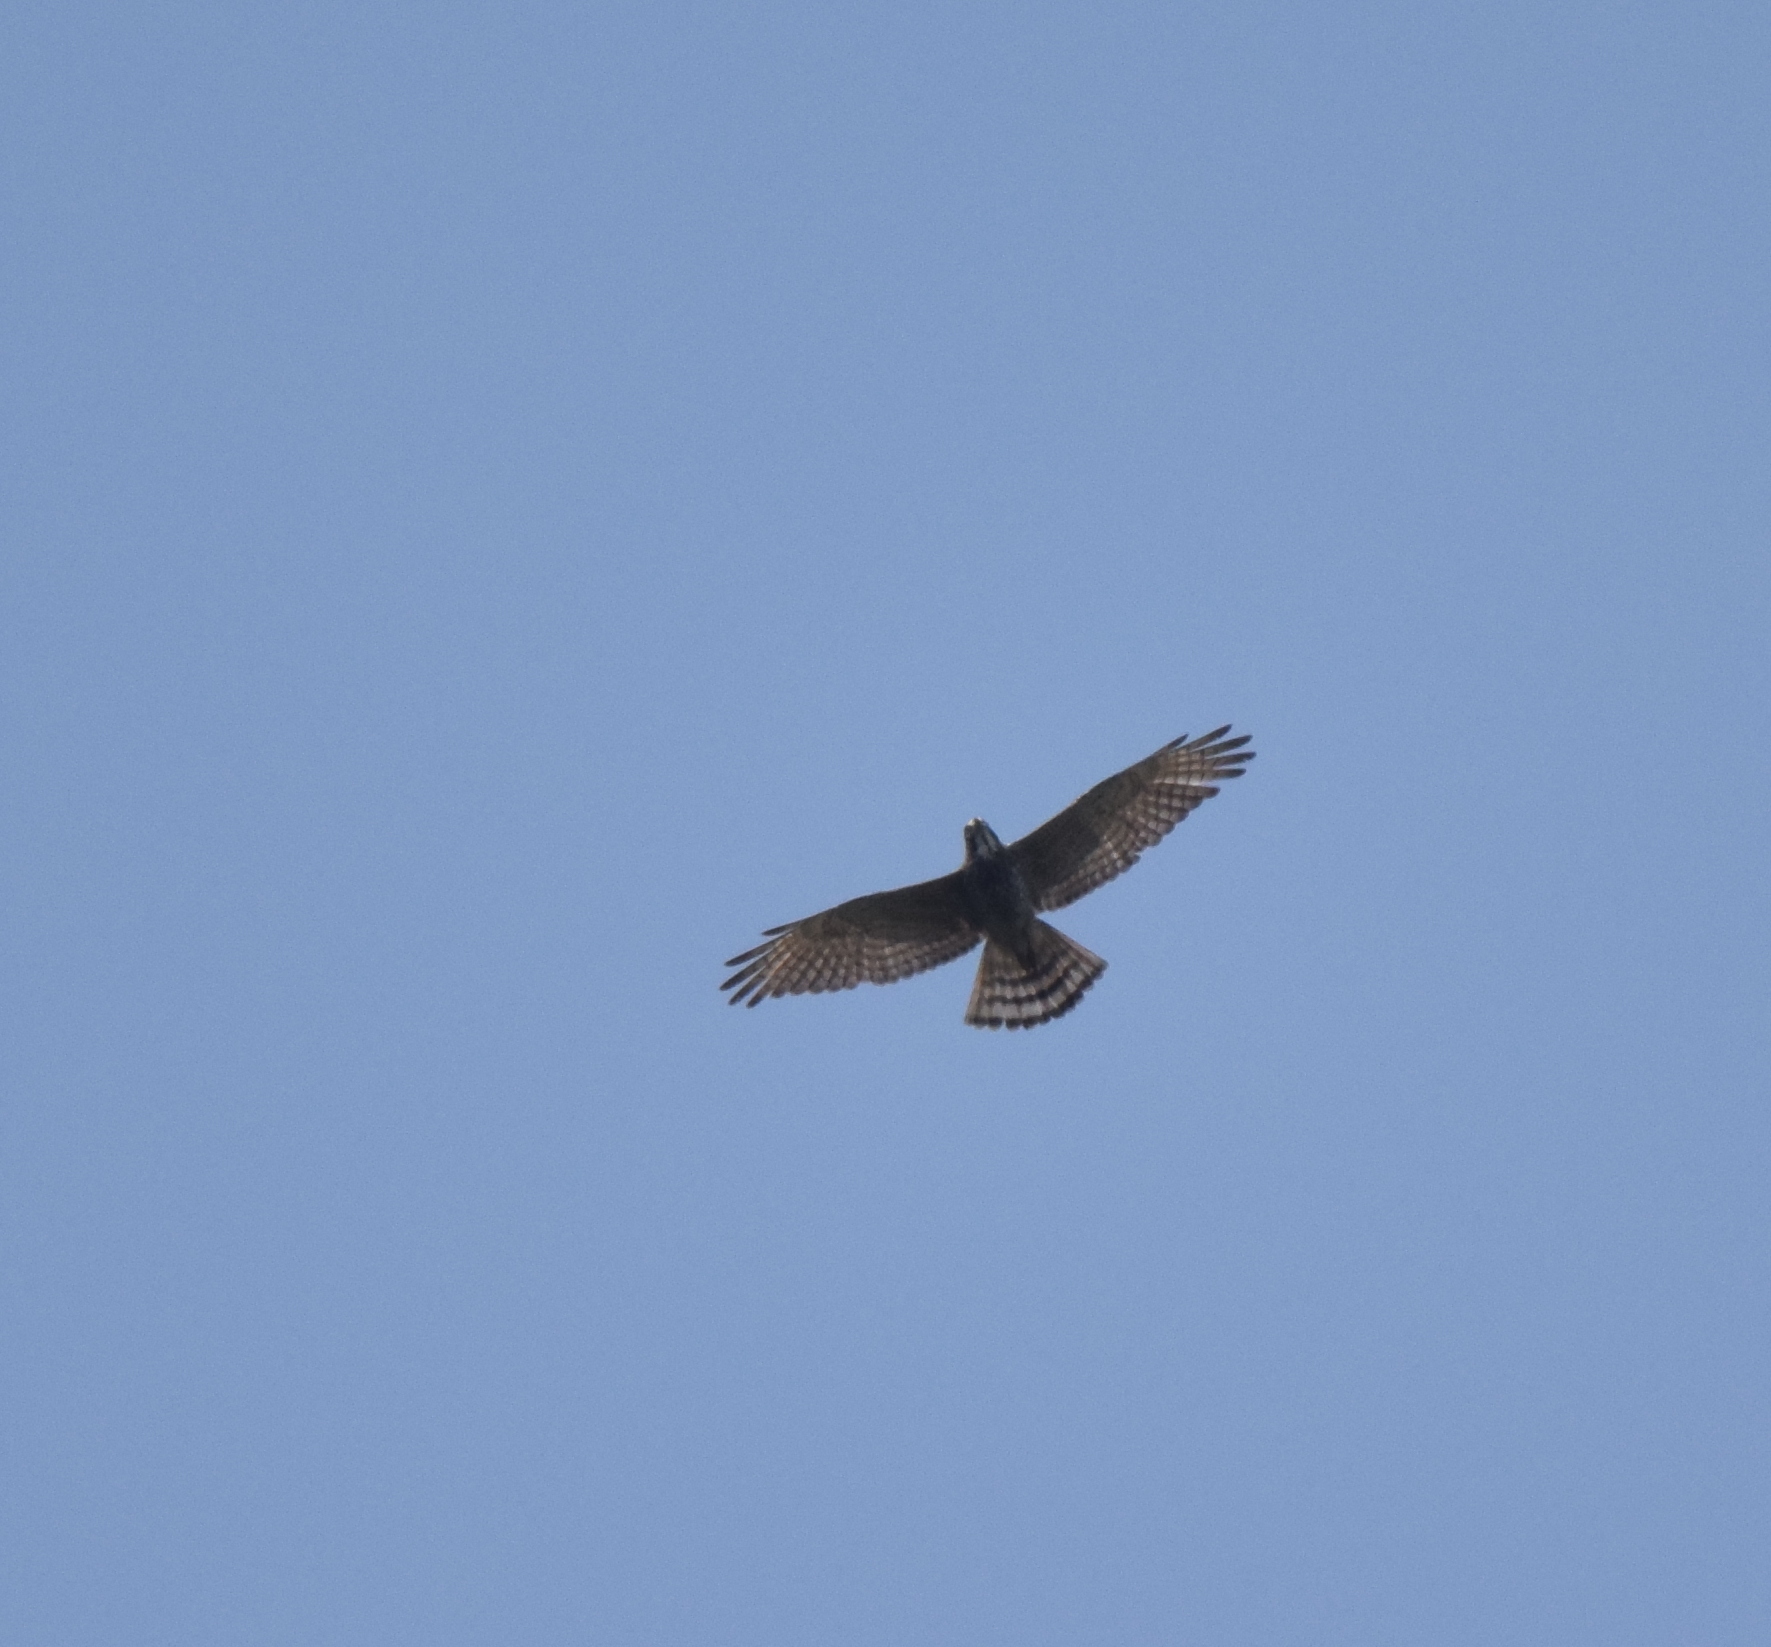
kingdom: Animalia
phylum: Chordata
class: Aves
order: Accipitriformes
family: Accipitridae
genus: Butastur
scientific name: Butastur indicus
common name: Grey-faced buzzard
